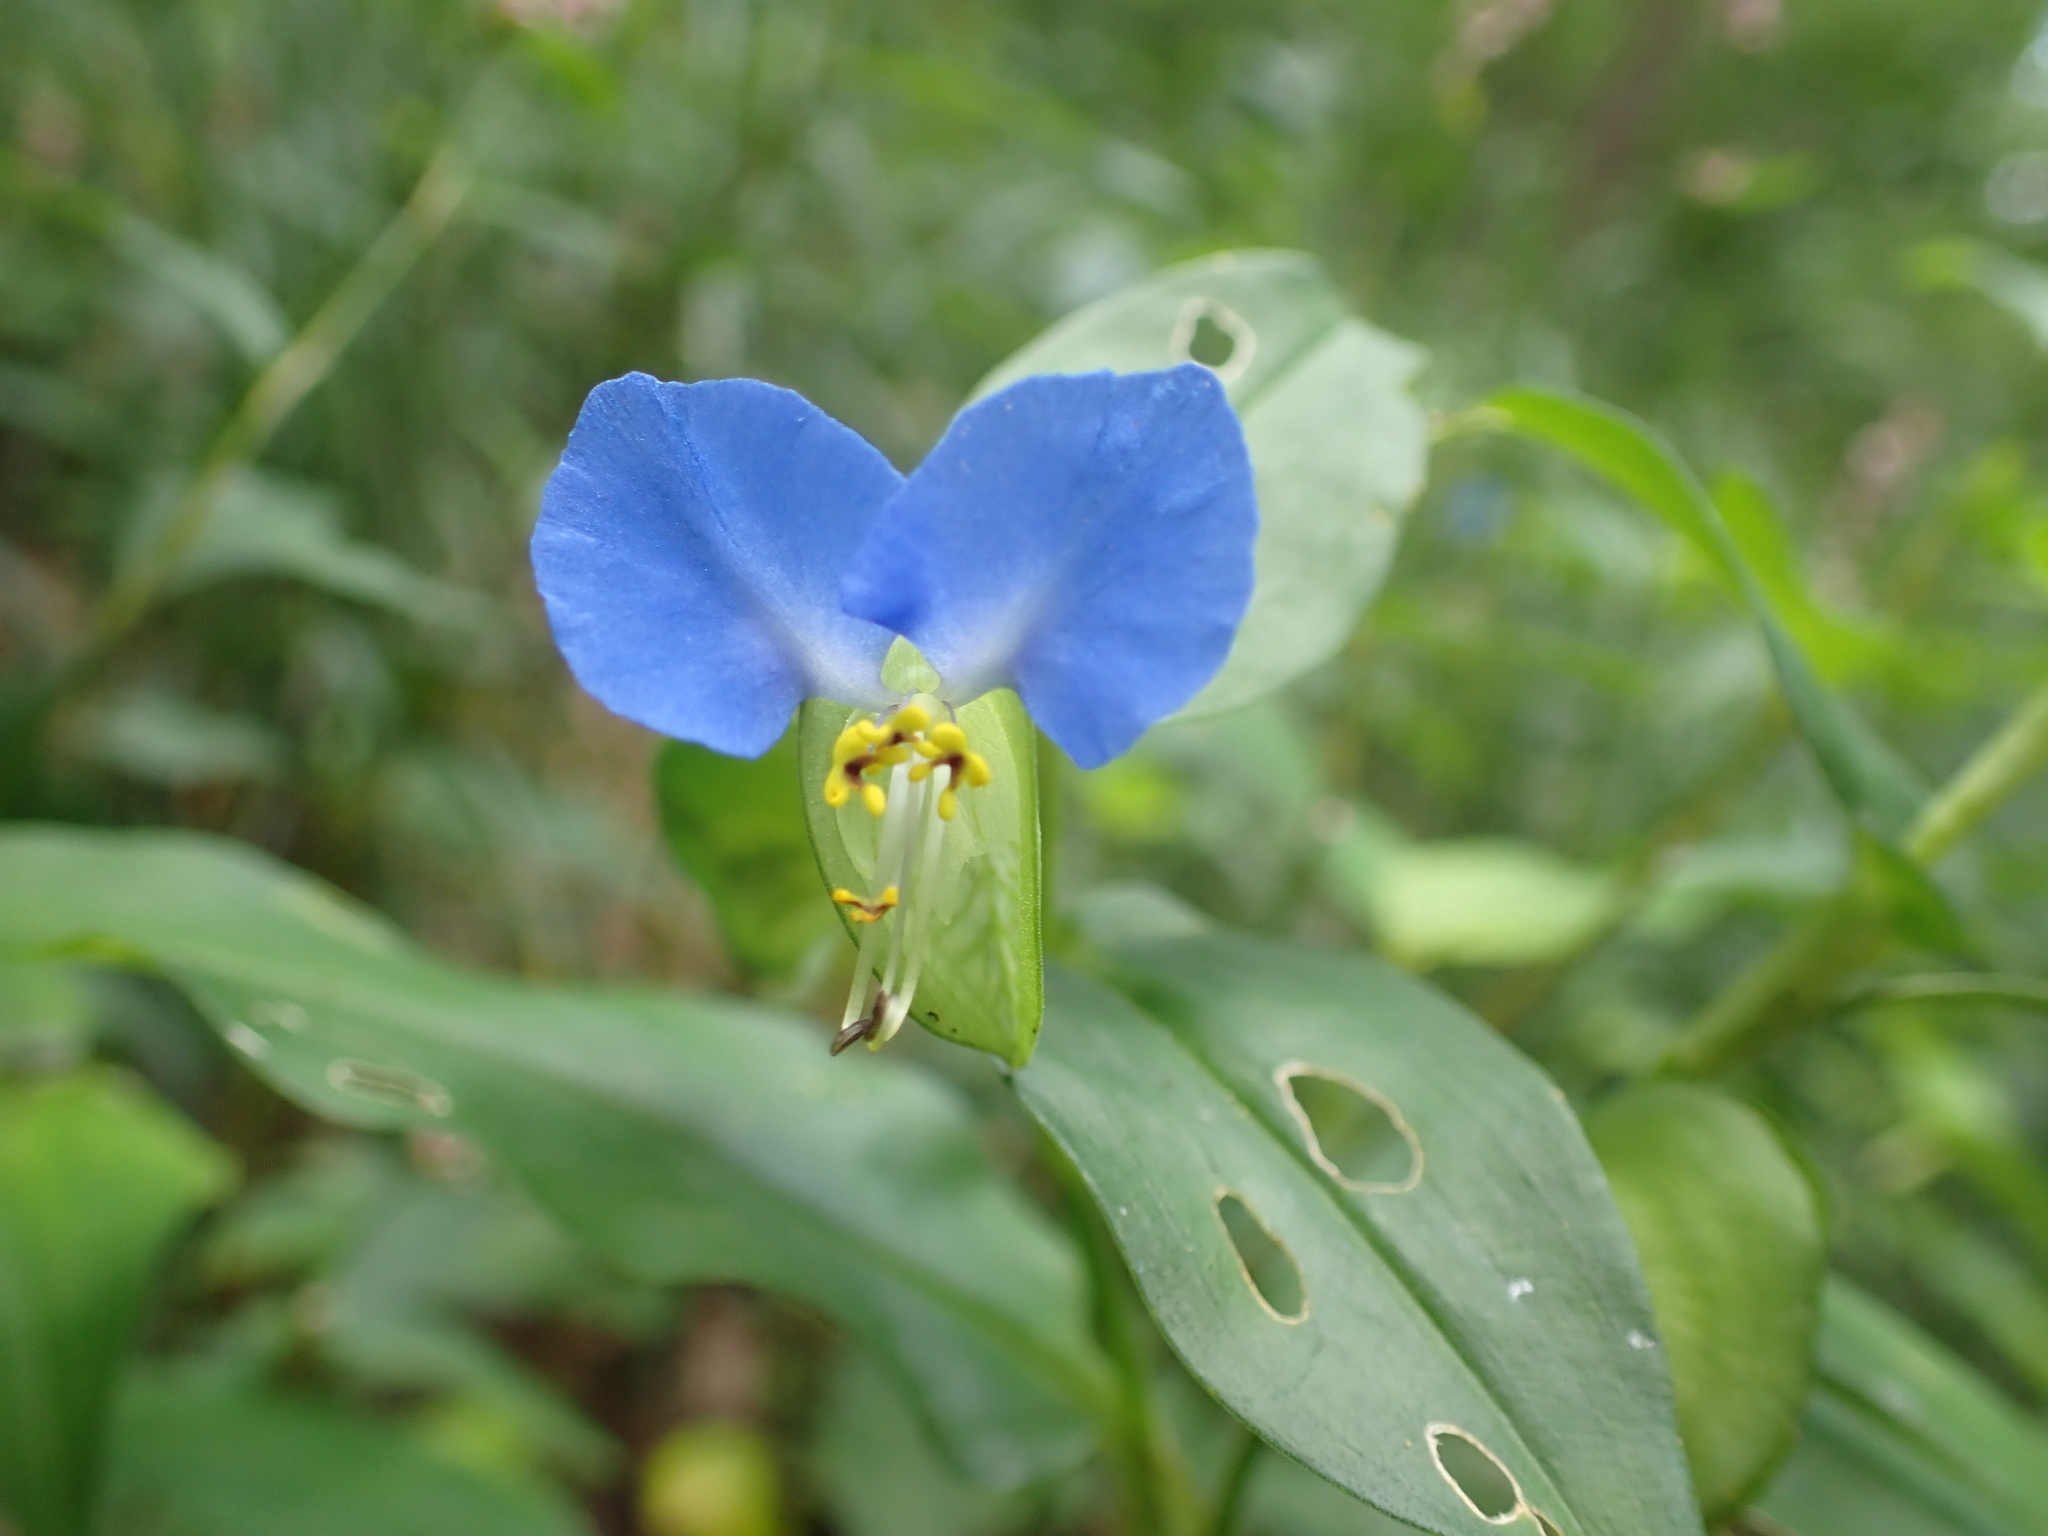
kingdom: Plantae
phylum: Tracheophyta
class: Liliopsida
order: Commelinales
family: Commelinaceae
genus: Commelina
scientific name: Commelina communis
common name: Asiatic dayflower
